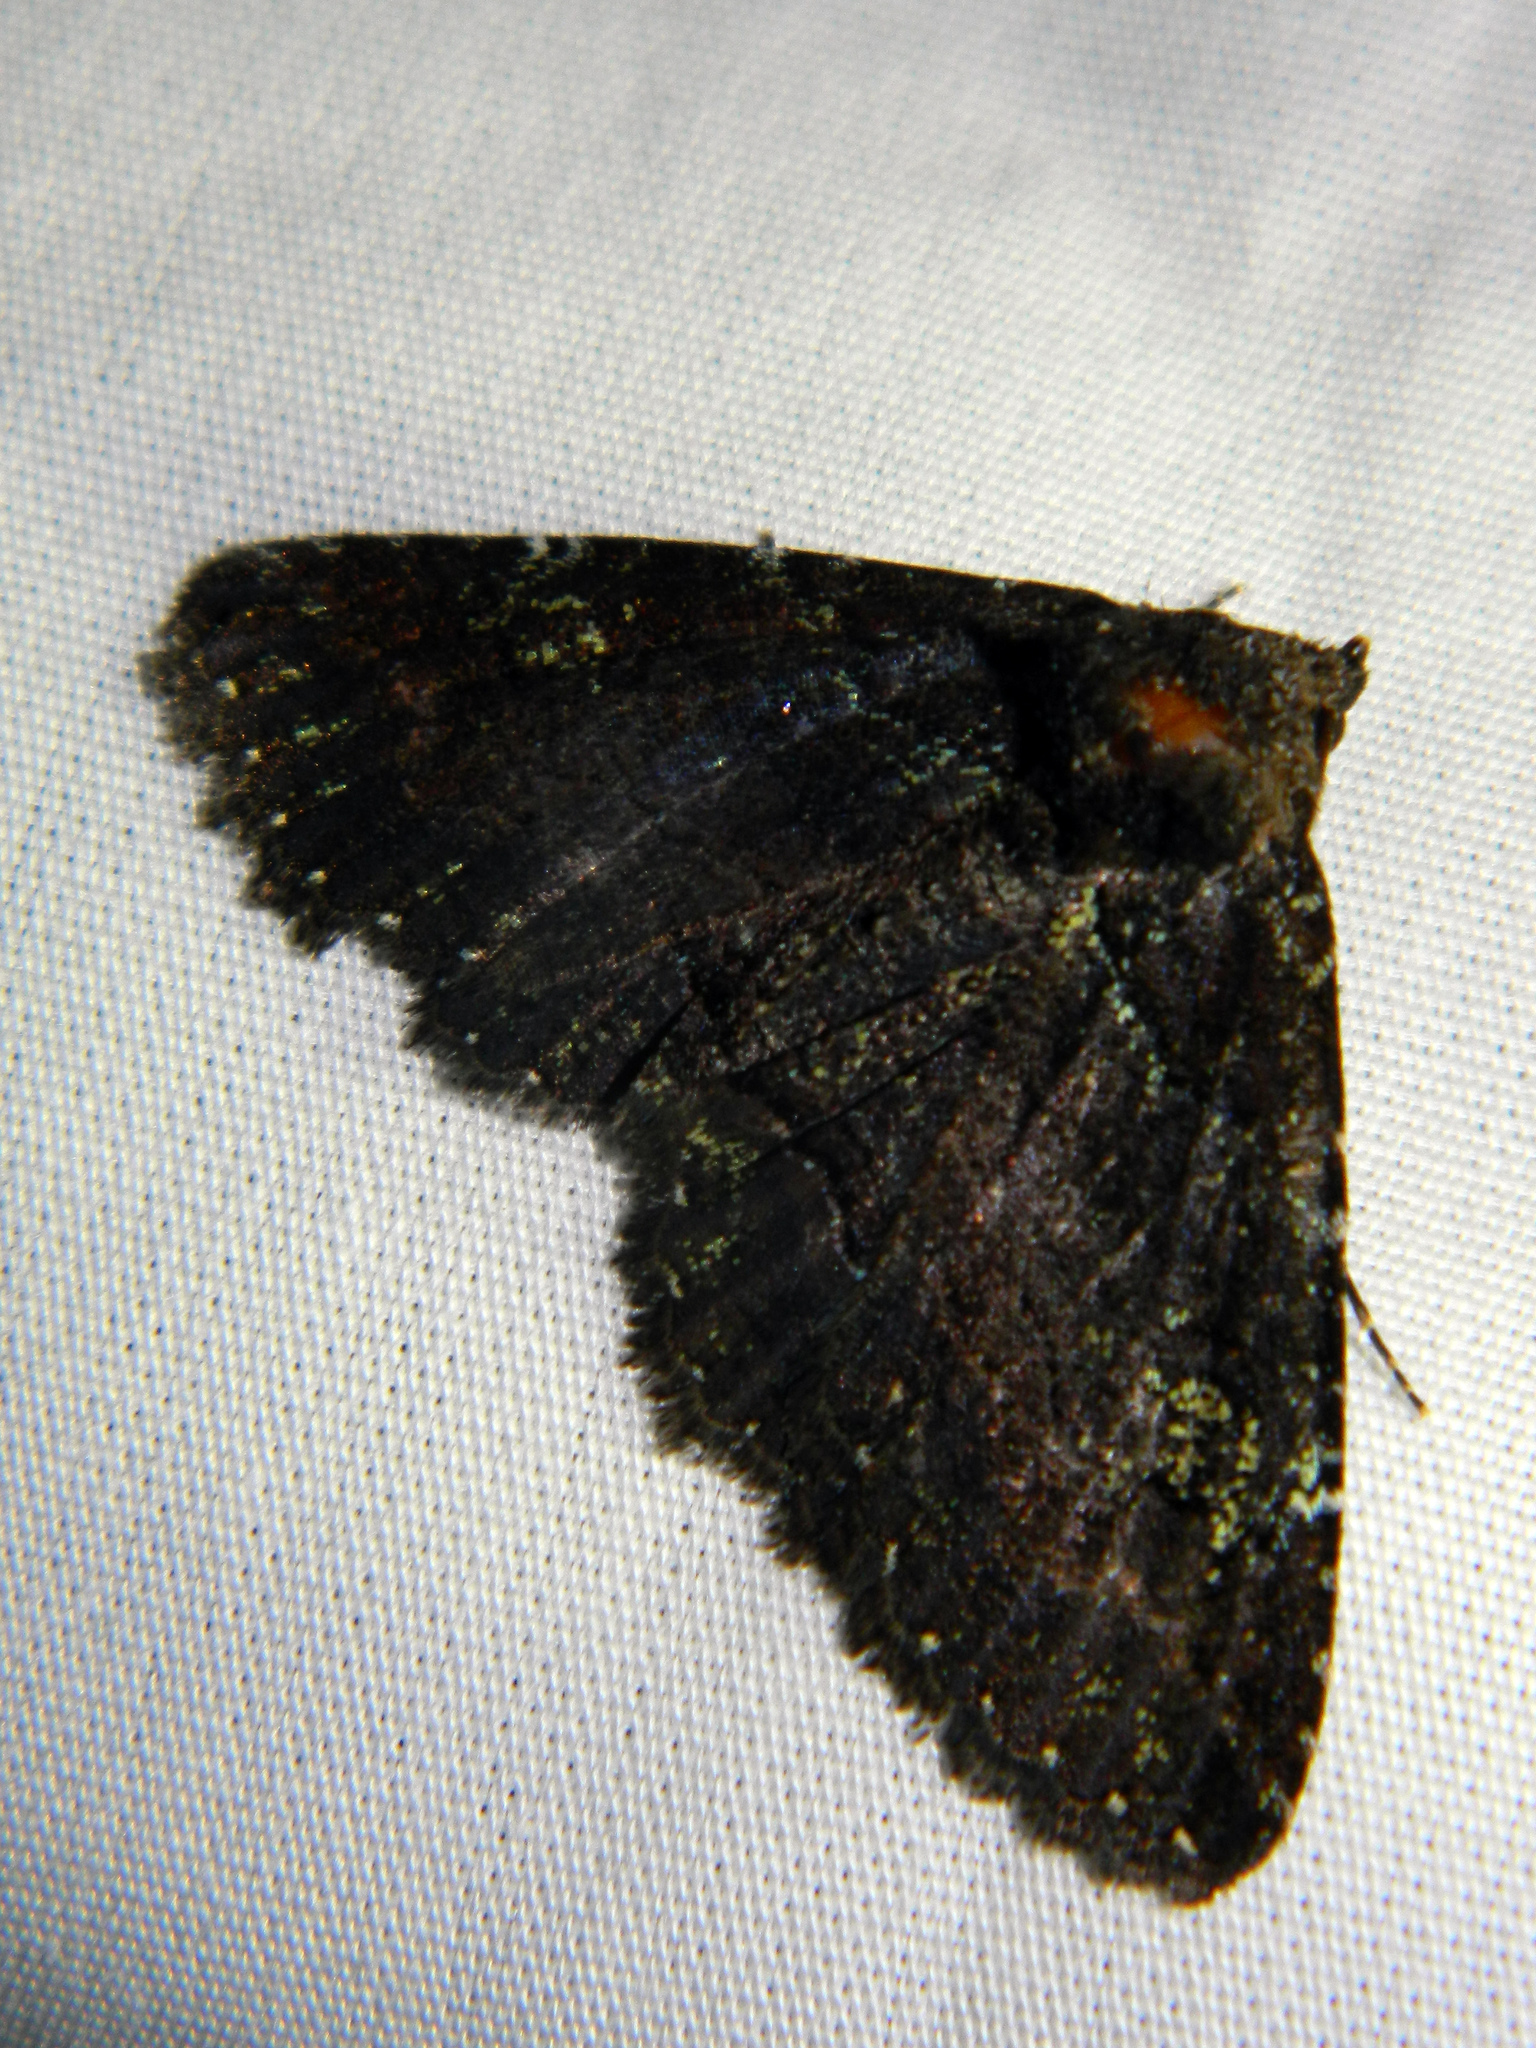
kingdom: Animalia
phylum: Arthropoda
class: Insecta
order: Lepidoptera
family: Erebidae
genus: Zale
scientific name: Zale aeruginosa
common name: Green-dusted zale moth
